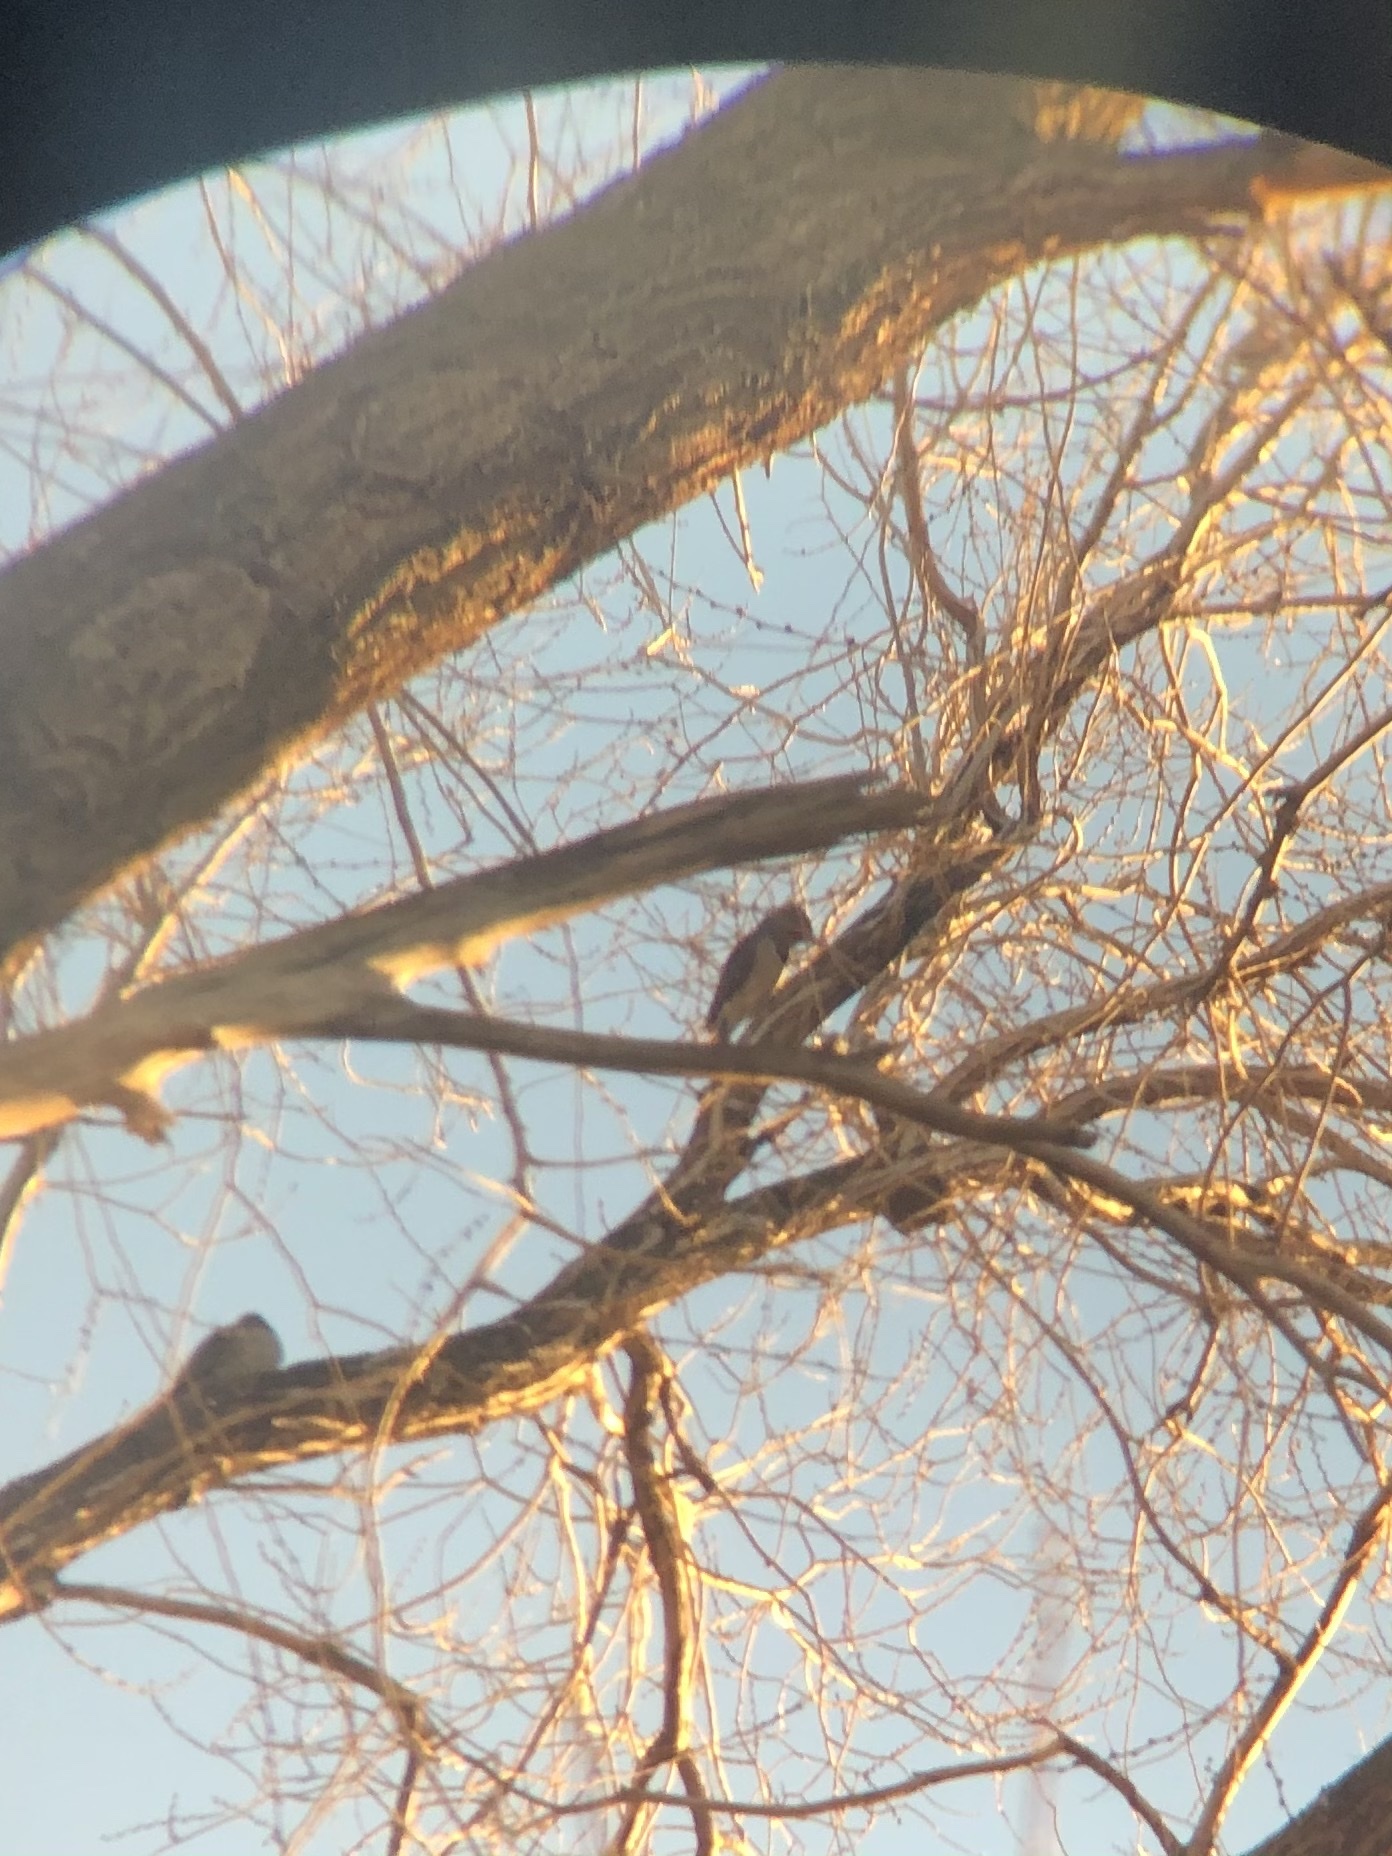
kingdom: Animalia
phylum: Chordata
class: Aves
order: Piciformes
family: Picidae
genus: Colaptes
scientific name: Colaptes auratus
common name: Northern flicker
